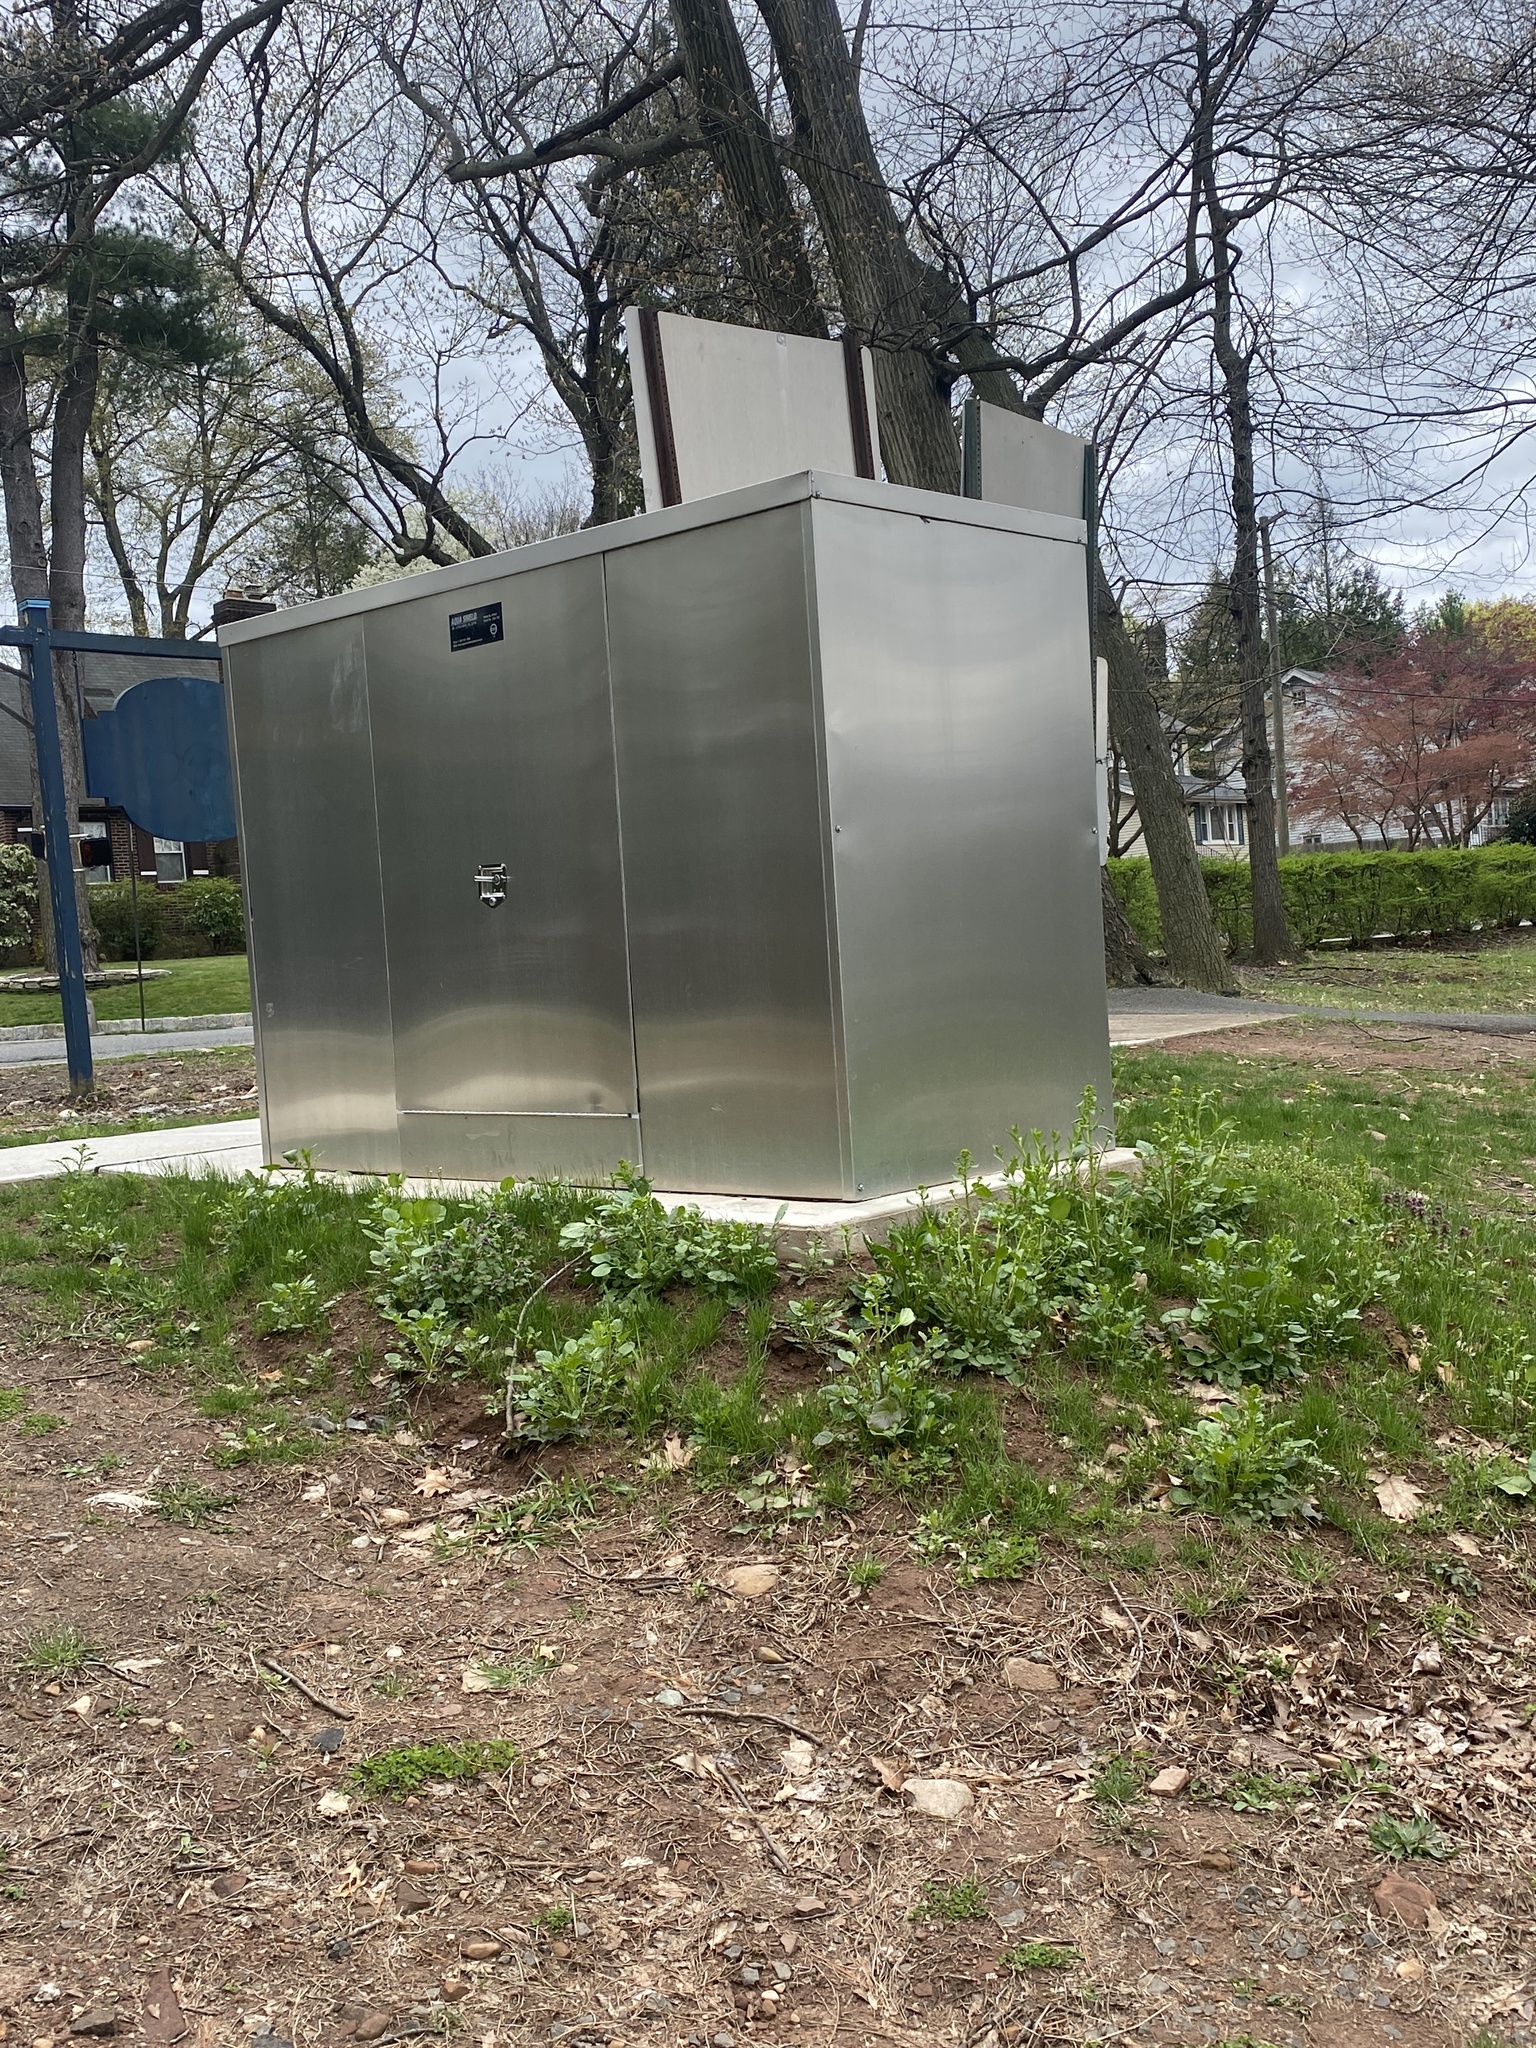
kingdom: Plantae
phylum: Tracheophyta
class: Magnoliopsida
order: Dipsacales
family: Caprifoliaceae
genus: Dipsacus
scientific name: Dipsacus fullonum
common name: Teasel
